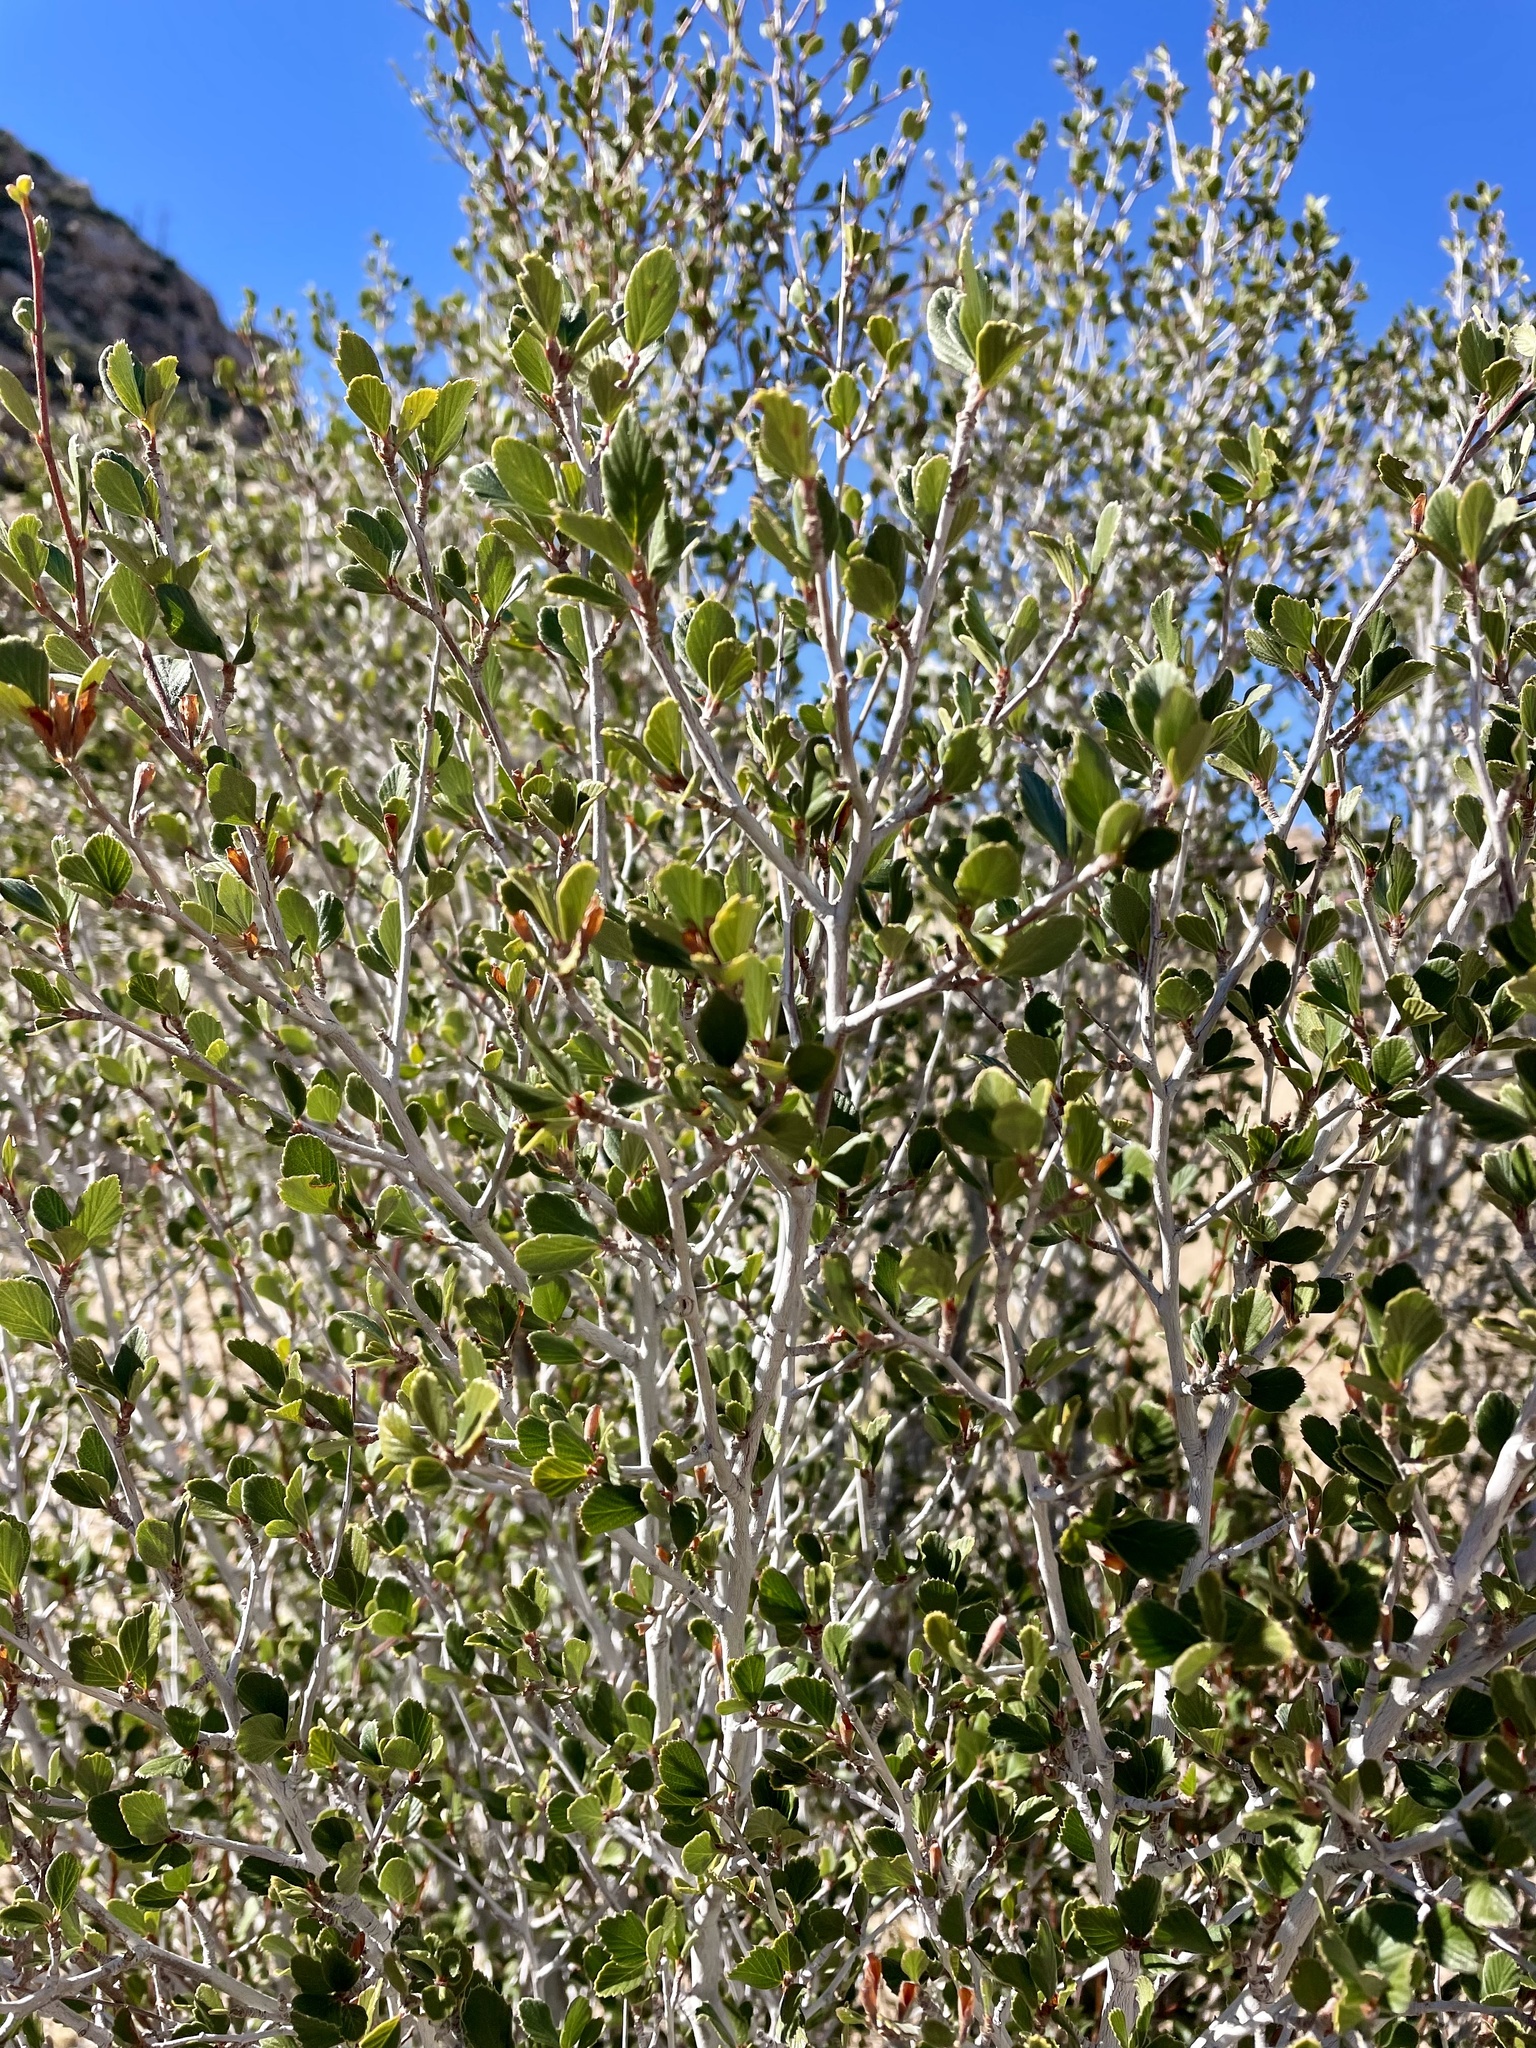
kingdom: Plantae
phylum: Tracheophyta
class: Magnoliopsida
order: Rosales
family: Rosaceae
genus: Cercocarpus
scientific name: Cercocarpus betuloides
